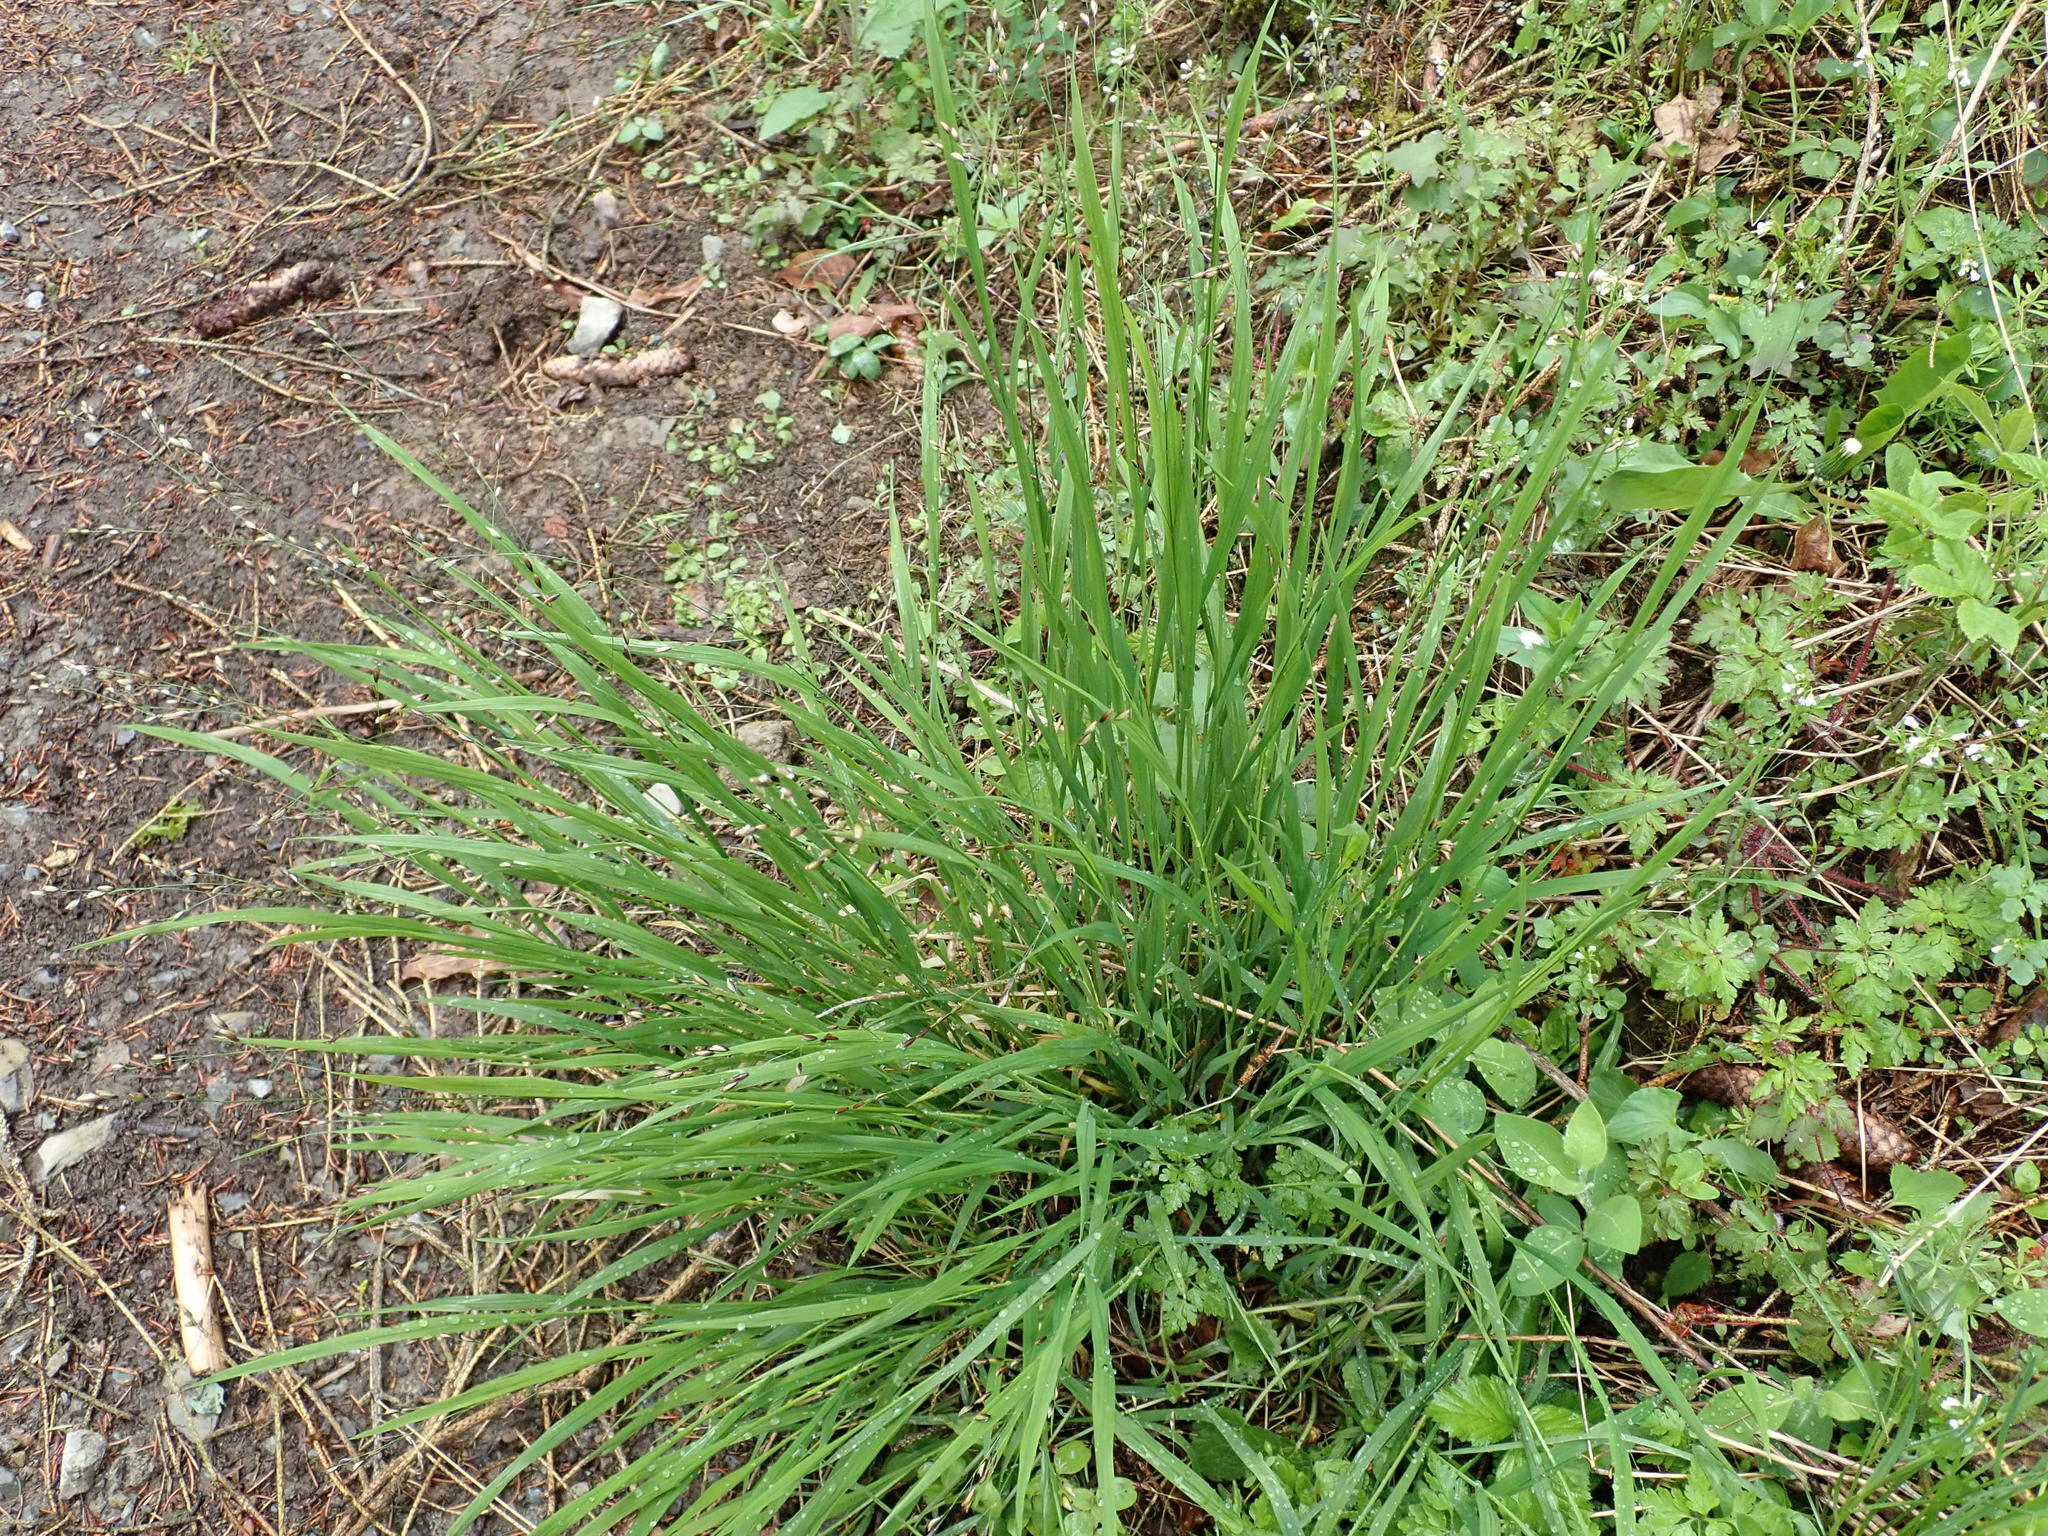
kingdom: Plantae
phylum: Tracheophyta
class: Liliopsida
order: Poales
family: Poaceae
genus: Melica
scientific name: Melica uniflora
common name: Wood melick
